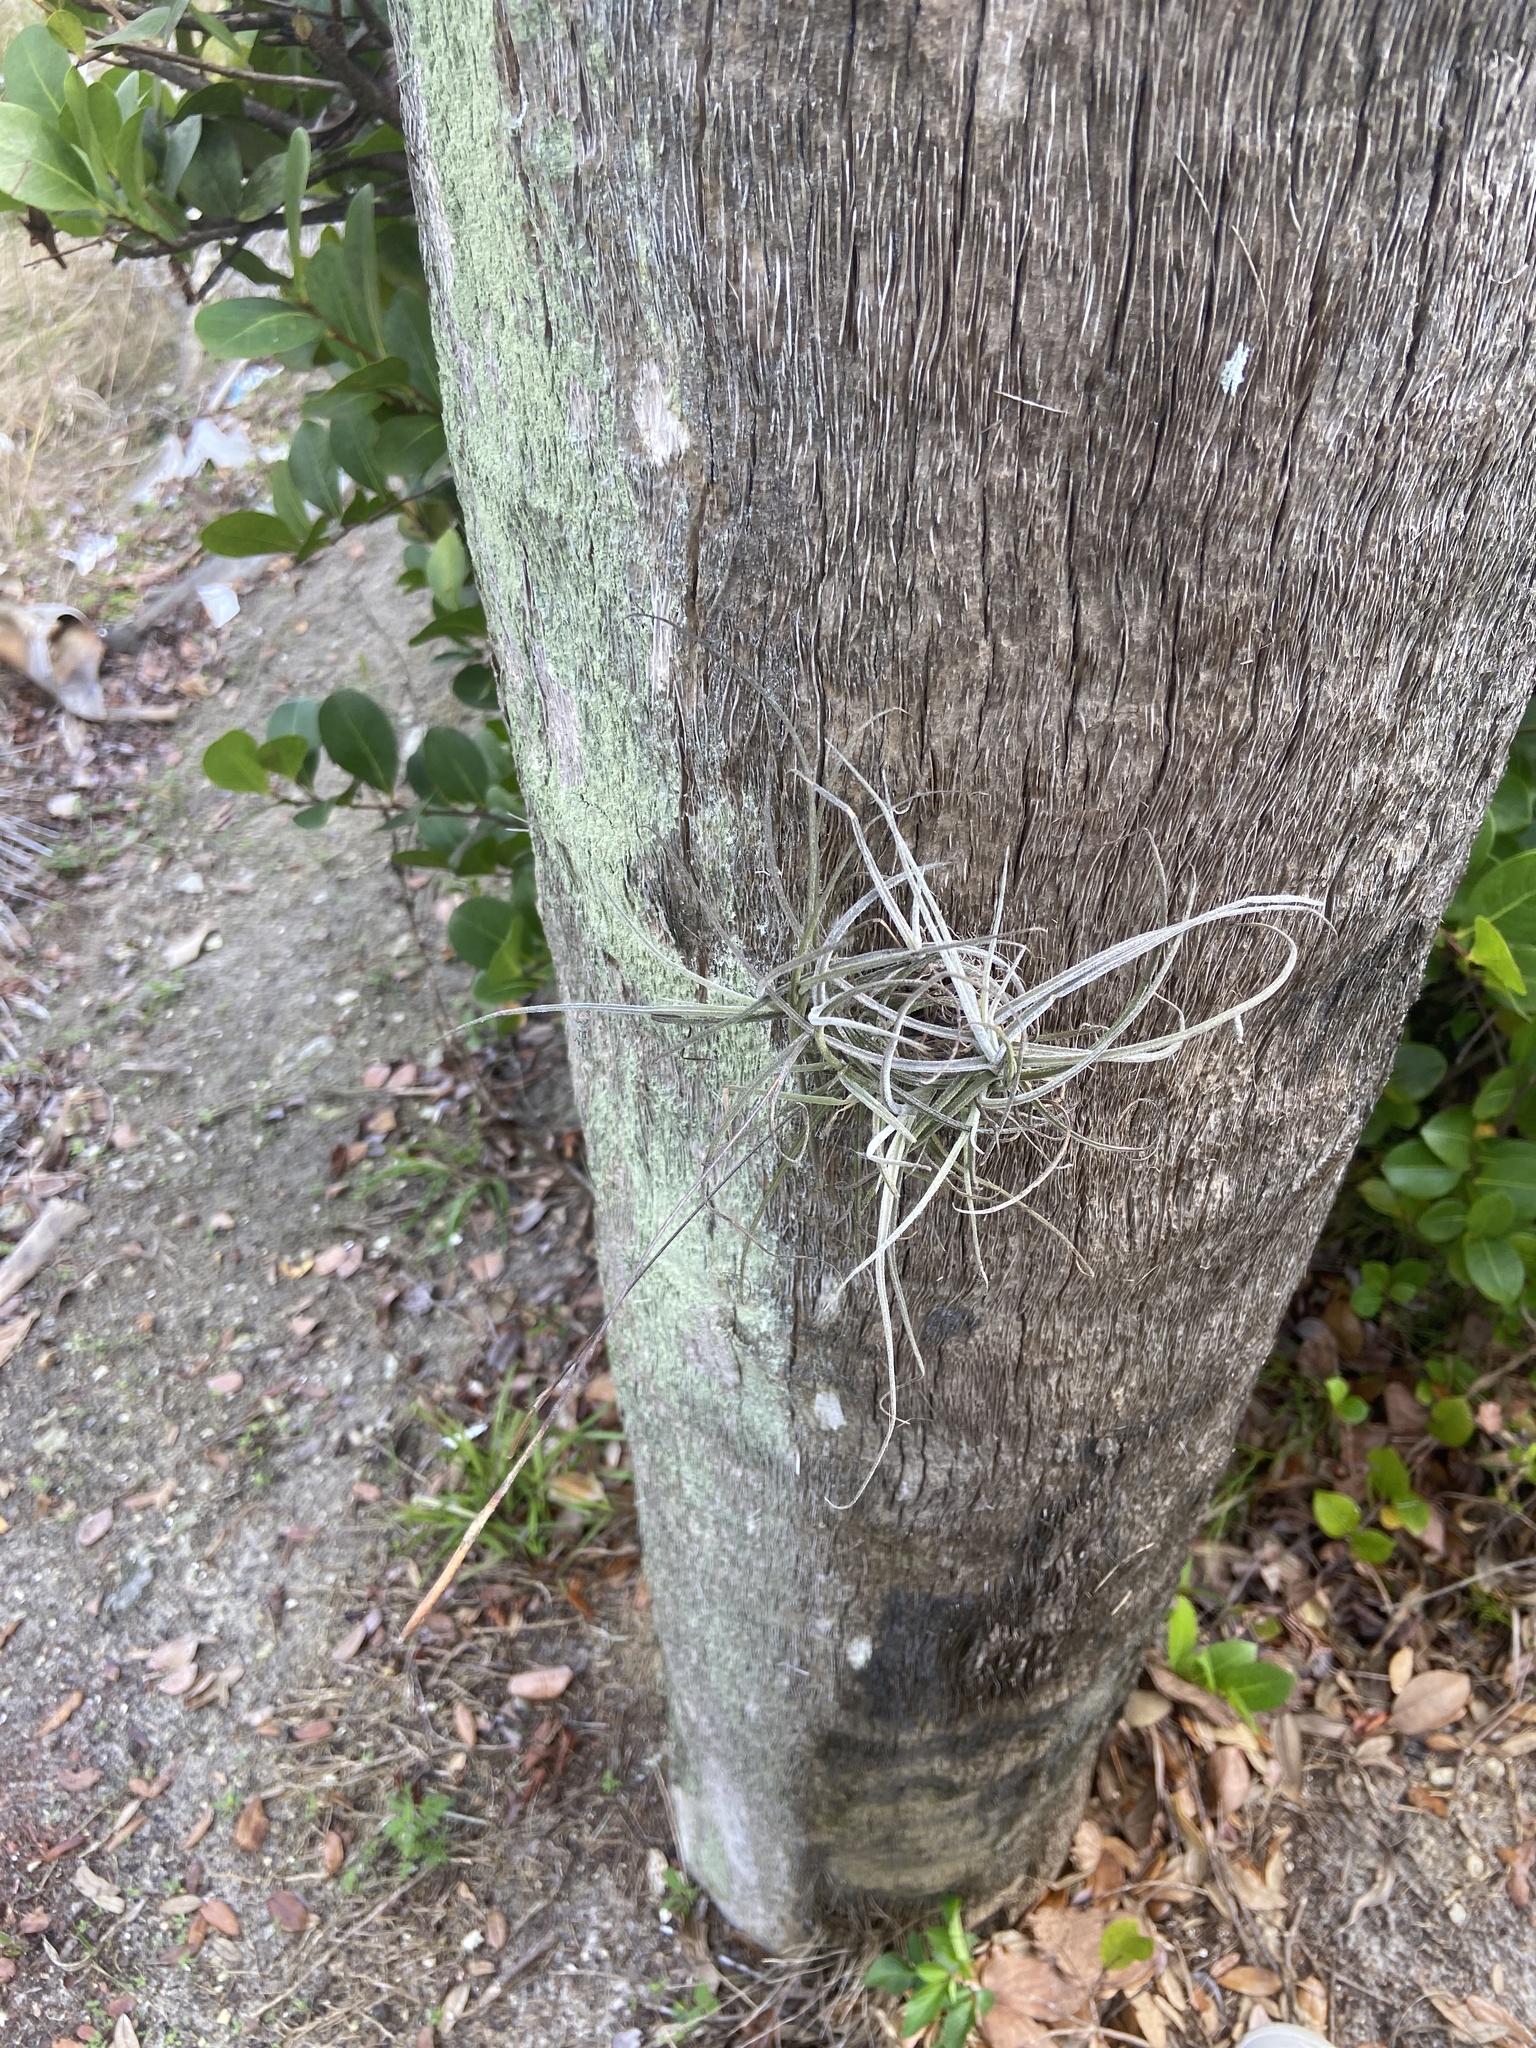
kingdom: Plantae
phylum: Tracheophyta
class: Liliopsida
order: Poales
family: Bromeliaceae
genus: Tillandsia
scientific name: Tillandsia recurvata
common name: Small ballmoss
